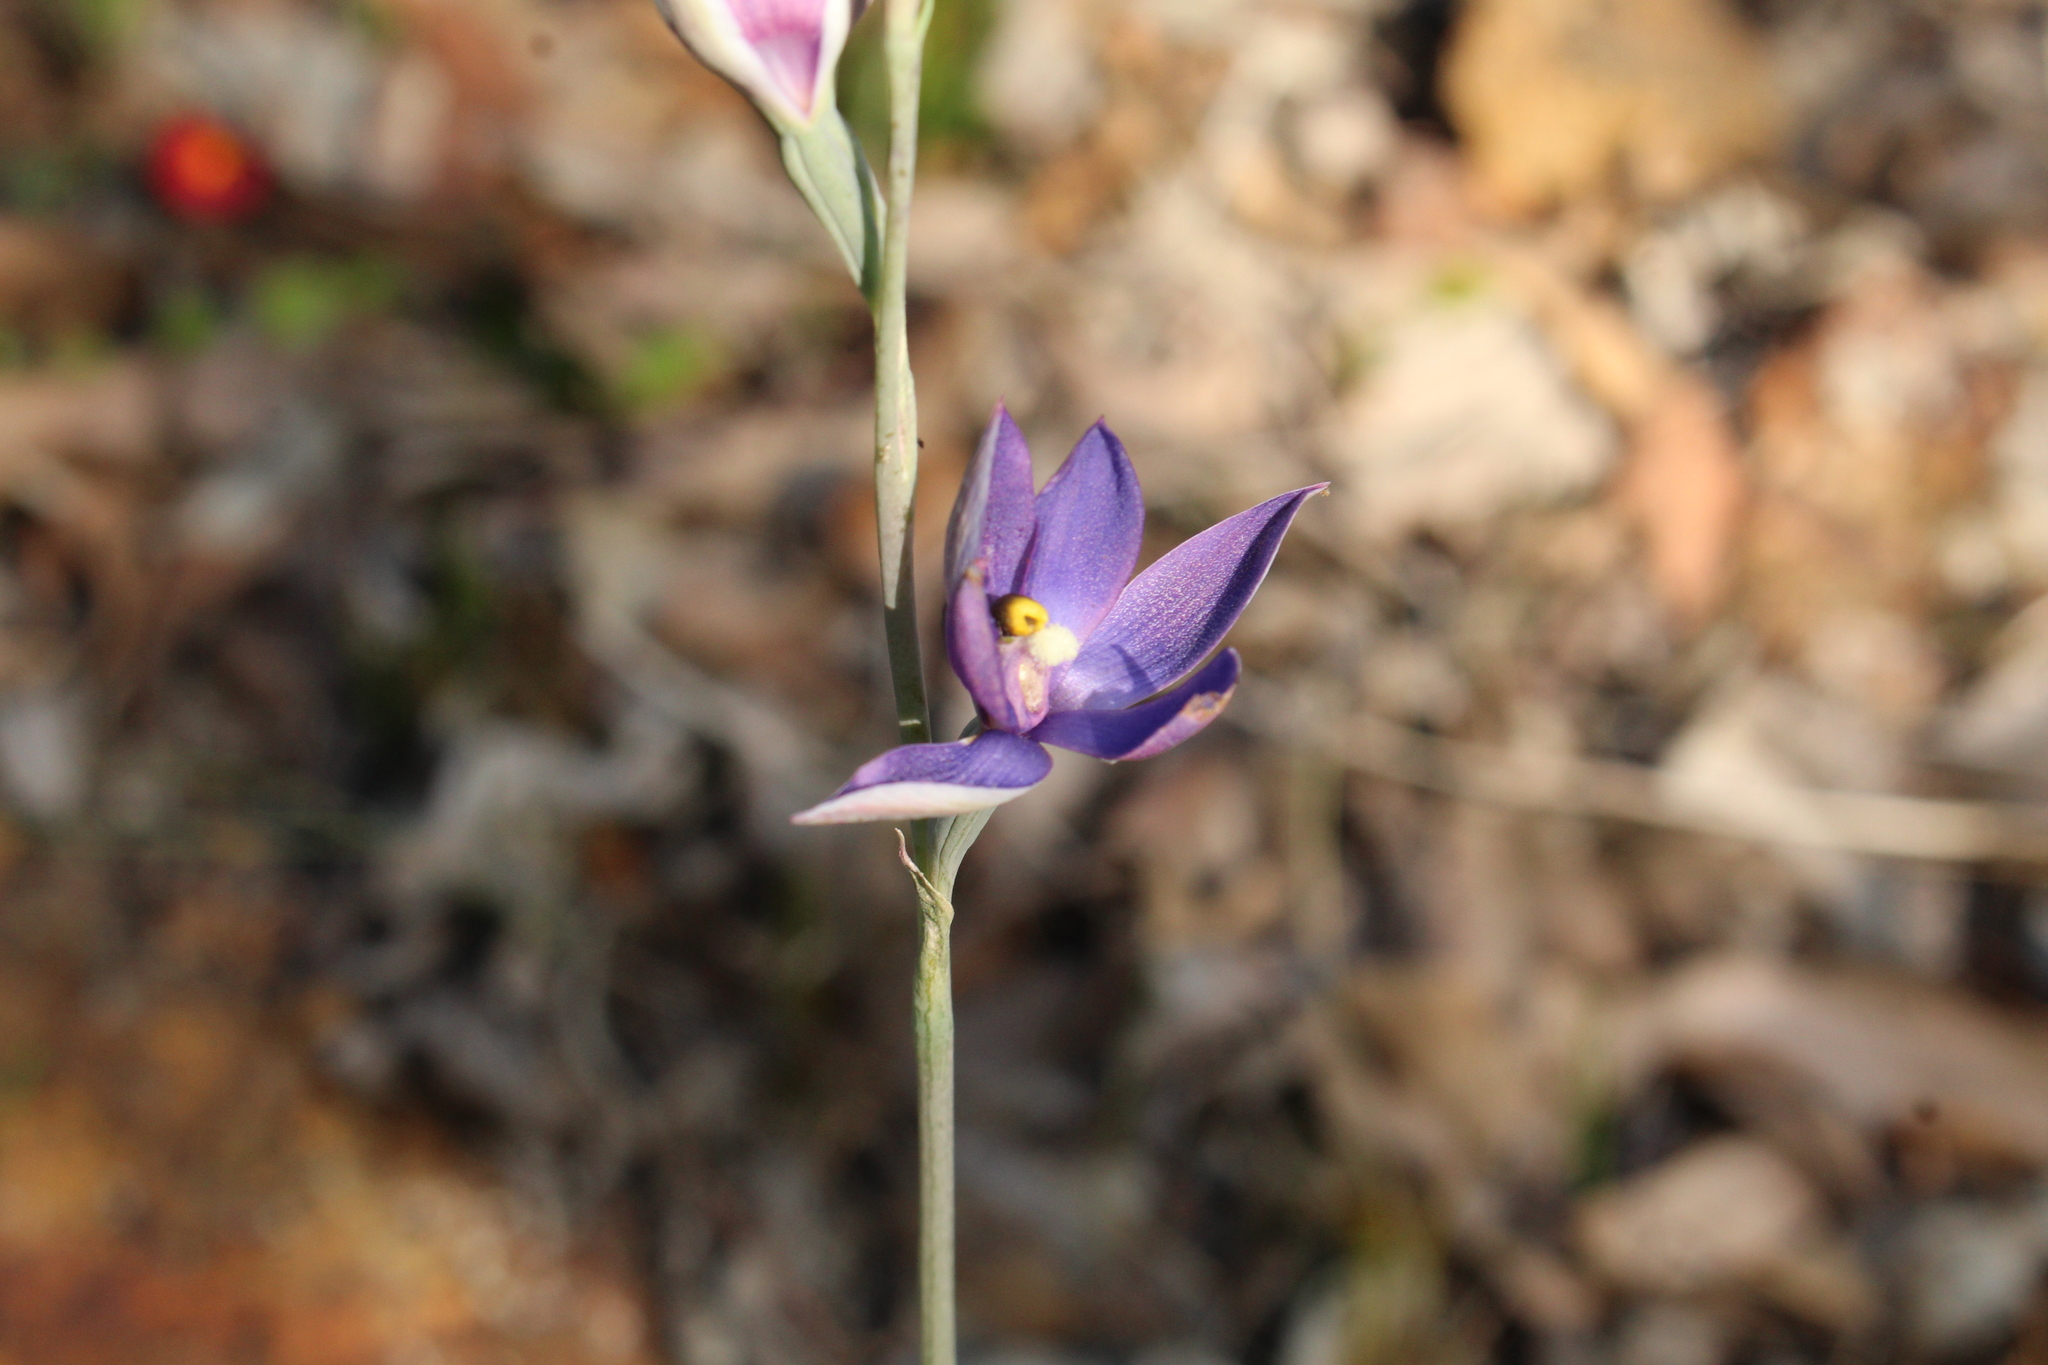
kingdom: Plantae
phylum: Tracheophyta
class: Liliopsida
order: Asparagales
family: Orchidaceae
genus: Thelymitra
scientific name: Thelymitra graminea
